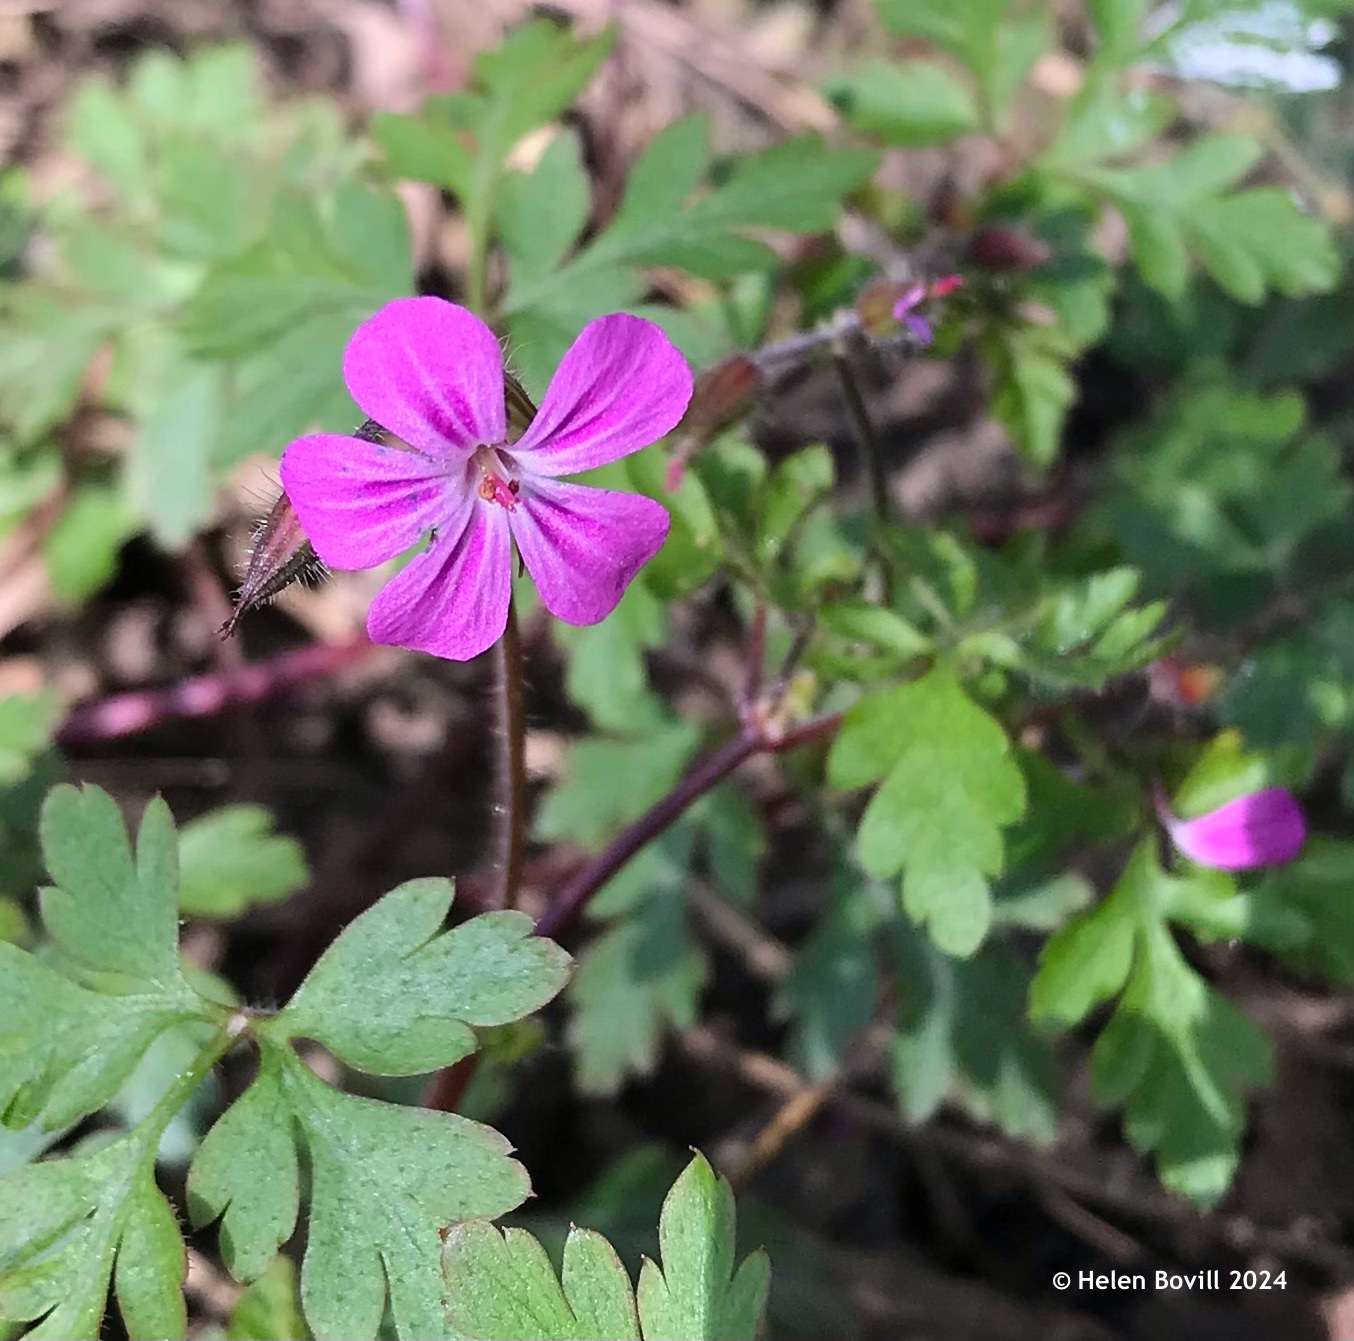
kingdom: Plantae
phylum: Tracheophyta
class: Magnoliopsida
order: Geraniales
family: Geraniaceae
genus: Geranium
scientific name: Geranium robertianum
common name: Herb-robert
